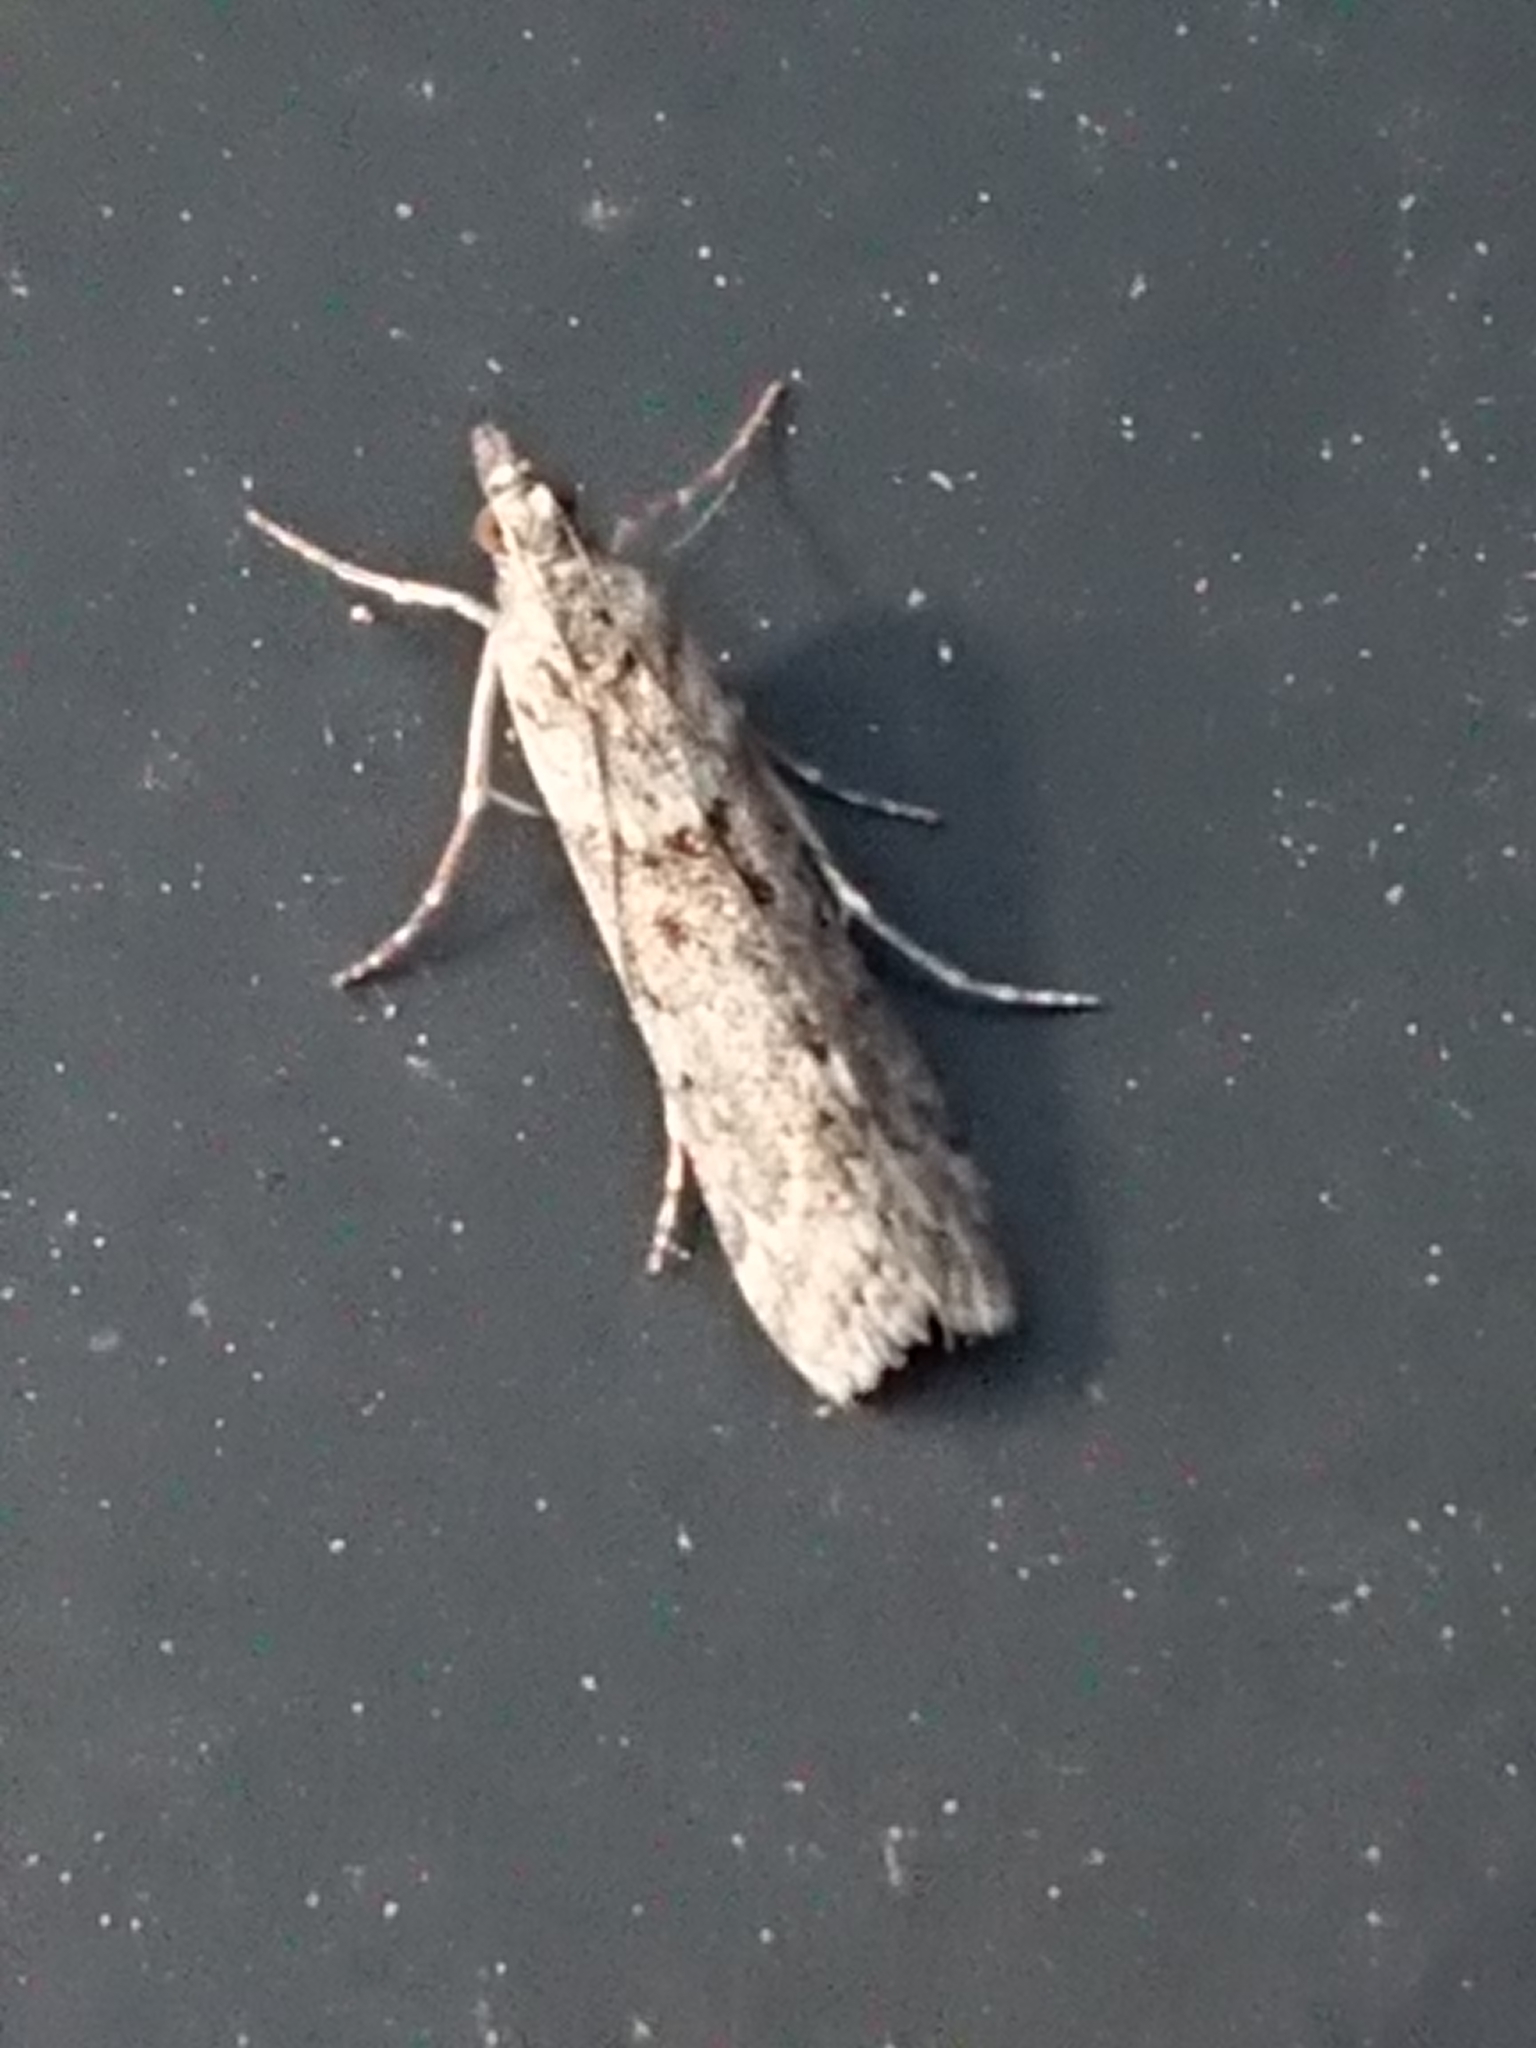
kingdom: Animalia
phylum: Arthropoda
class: Insecta
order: Lepidoptera
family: Crambidae
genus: Eudonia
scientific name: Eudonia leptalea
